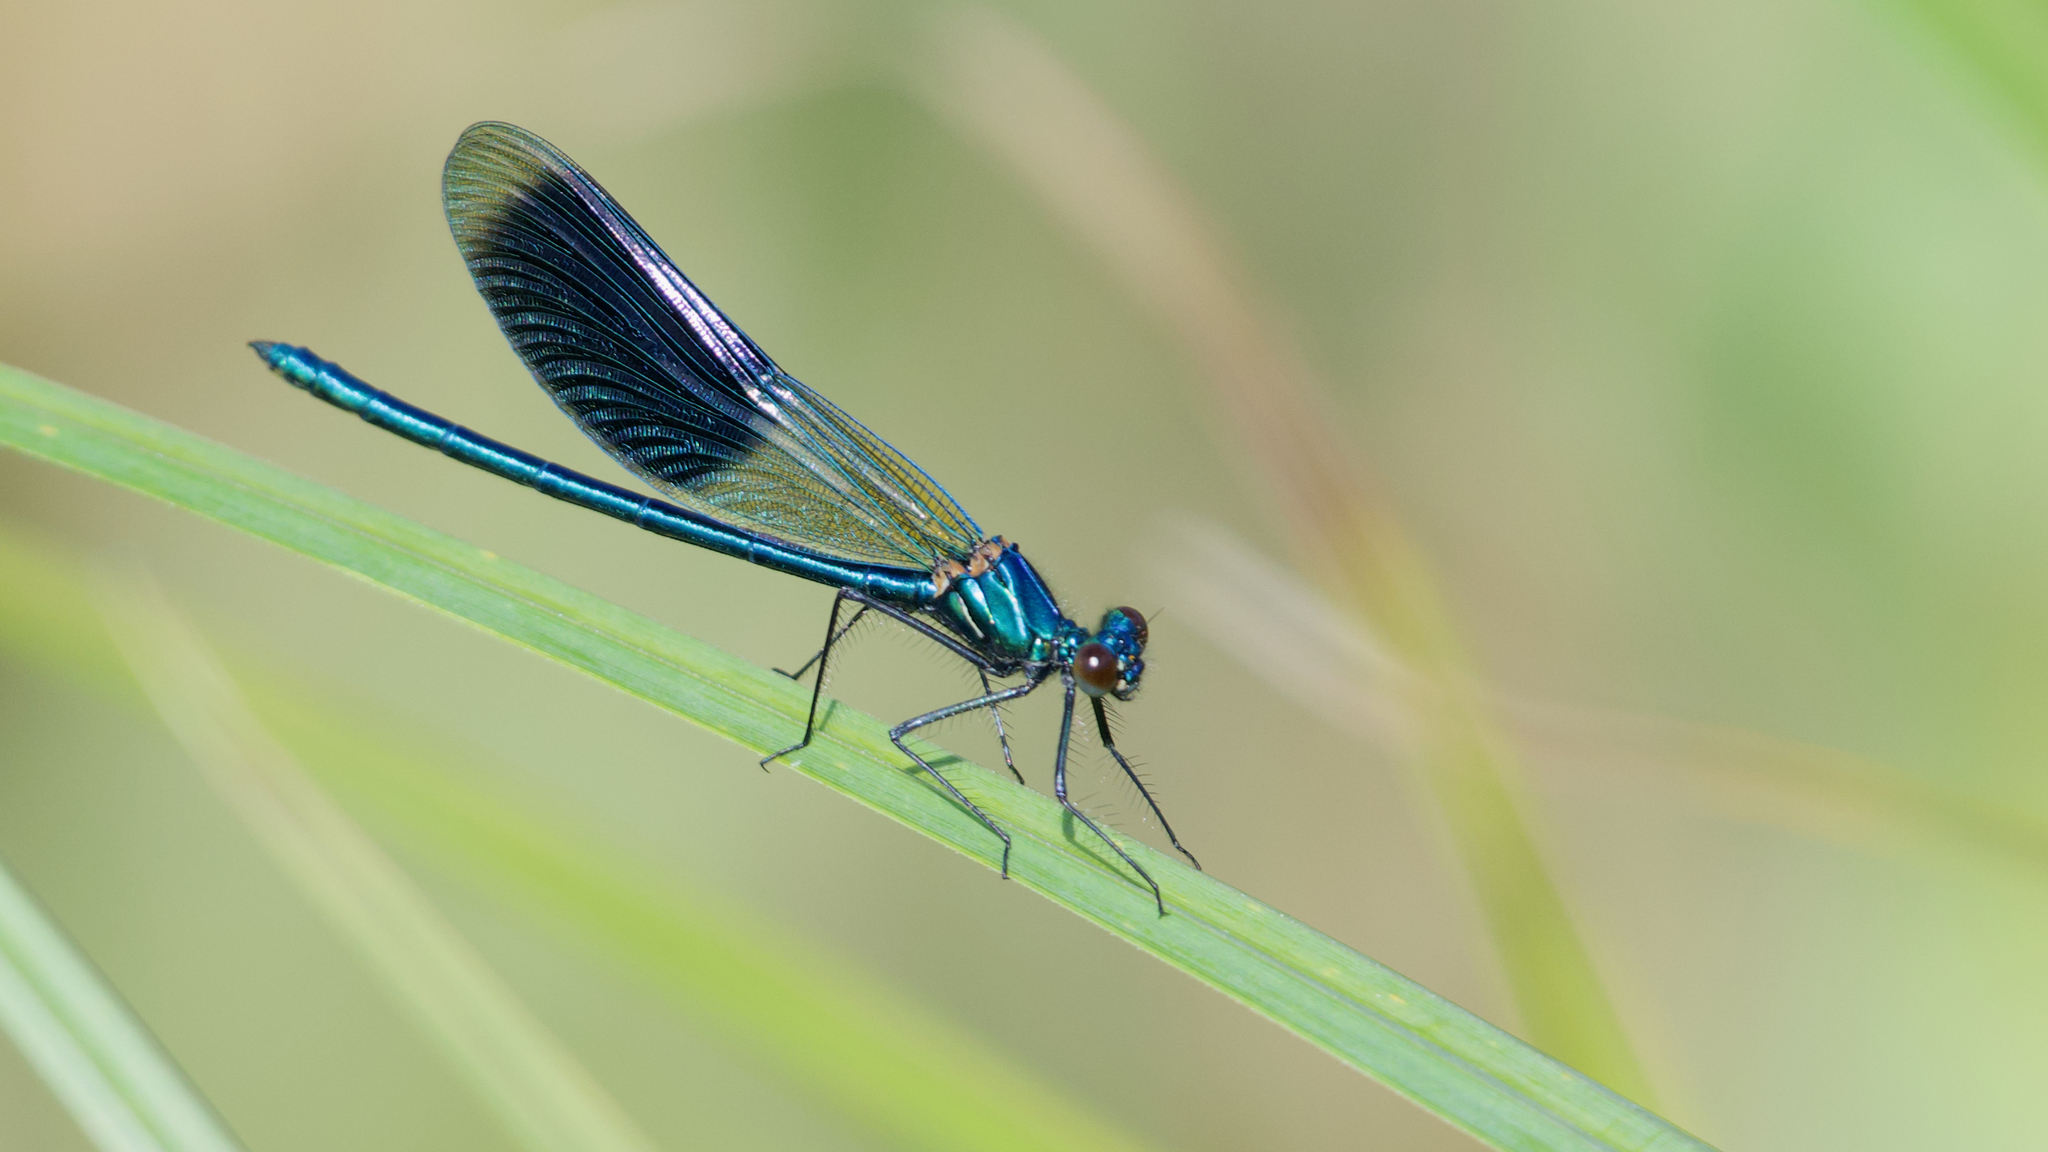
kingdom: Animalia
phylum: Arthropoda
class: Insecta
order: Odonata
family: Calopterygidae
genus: Calopteryx
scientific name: Calopteryx splendens
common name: Banded demoiselle
